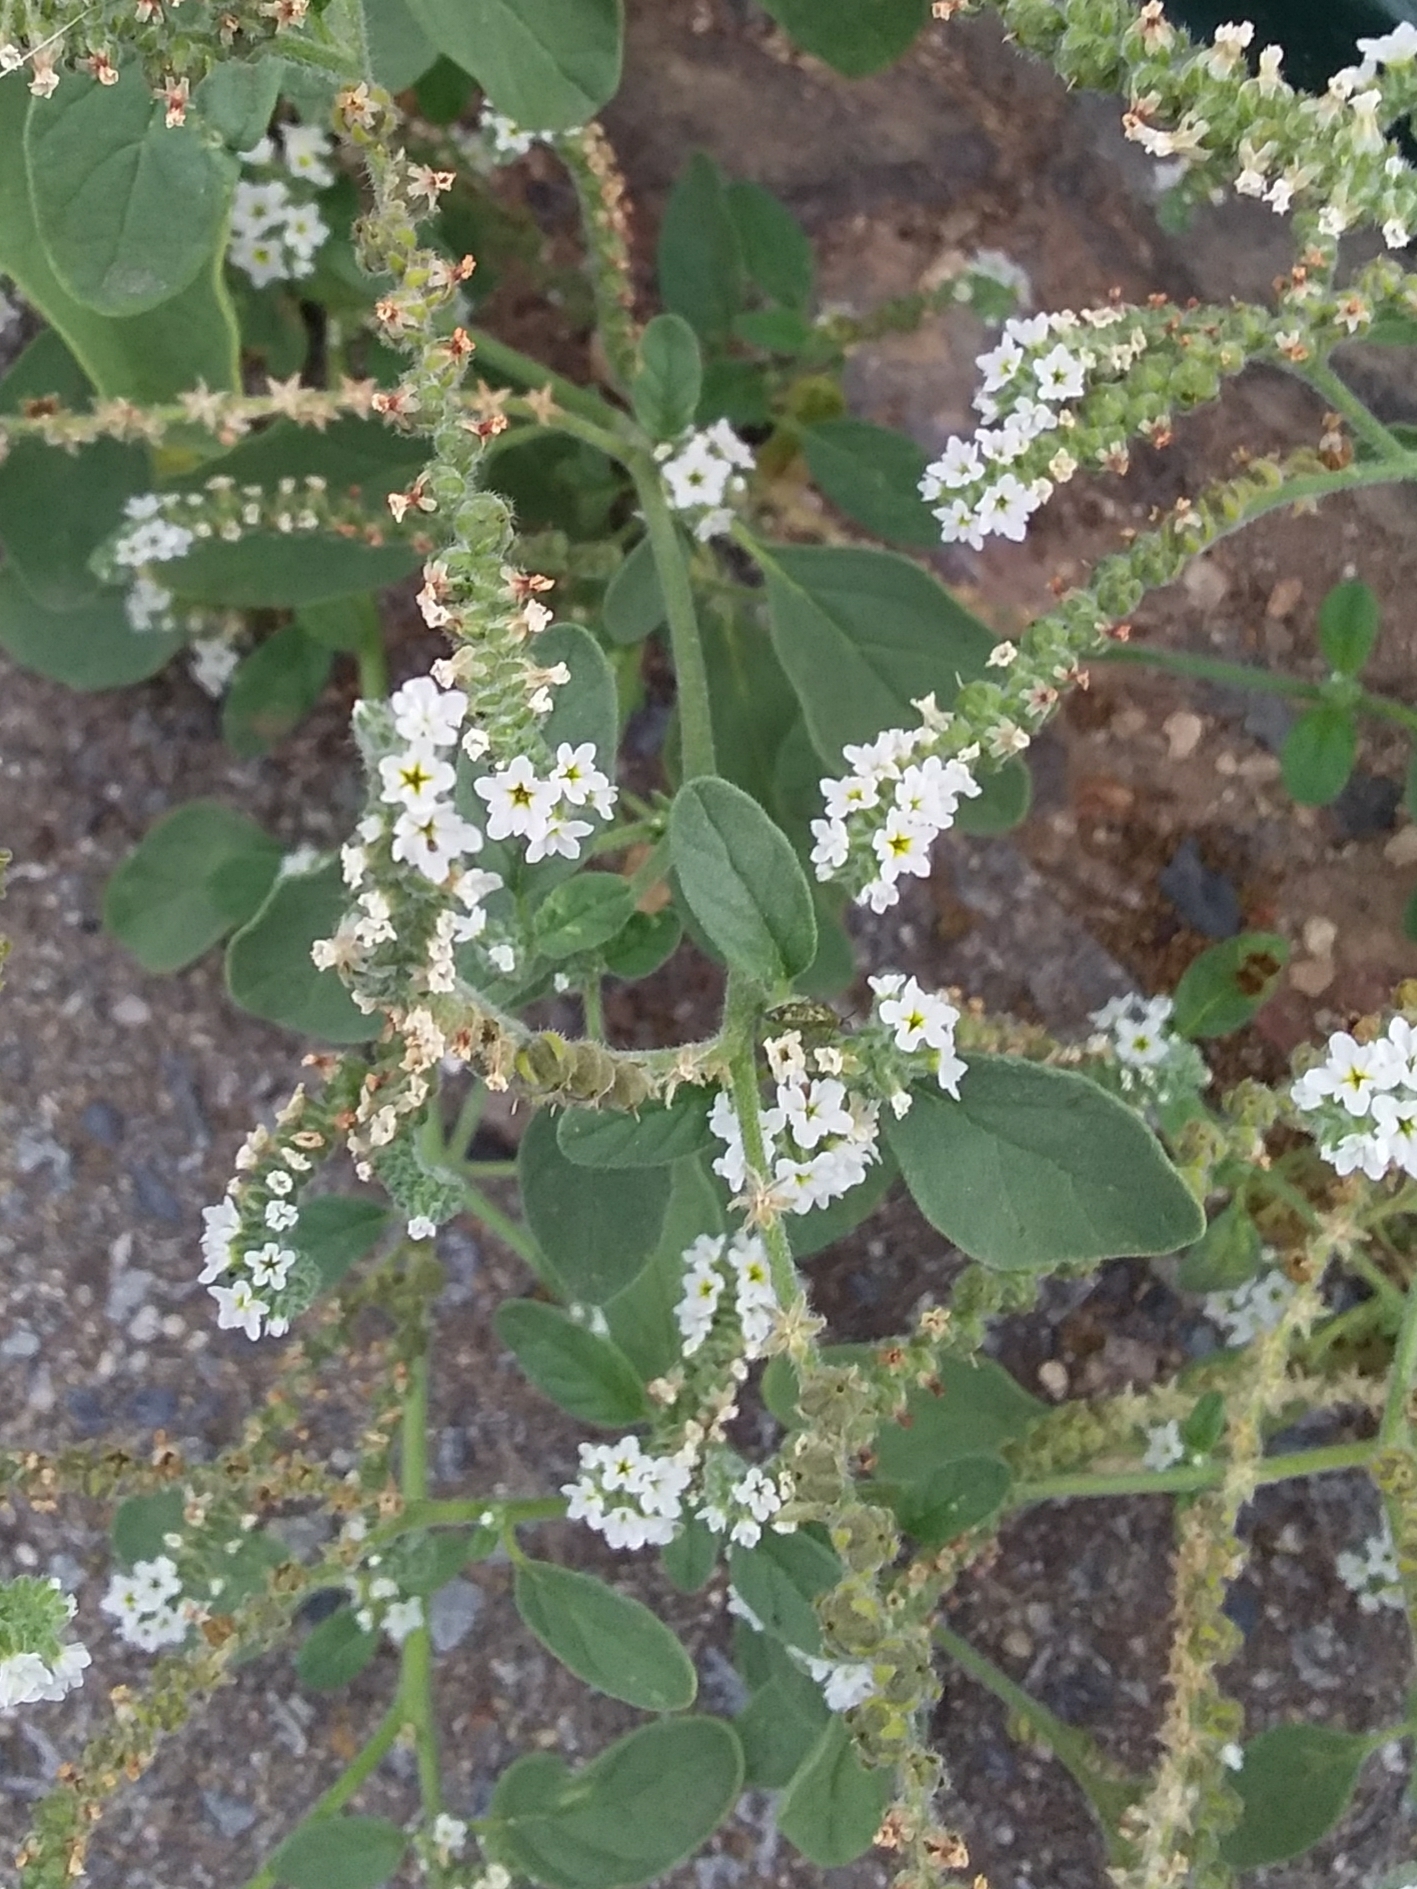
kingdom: Plantae
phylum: Tracheophyta
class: Magnoliopsida
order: Boraginales
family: Heliotropiaceae
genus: Heliotropium
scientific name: Heliotropium europaeum
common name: European heliotrope
